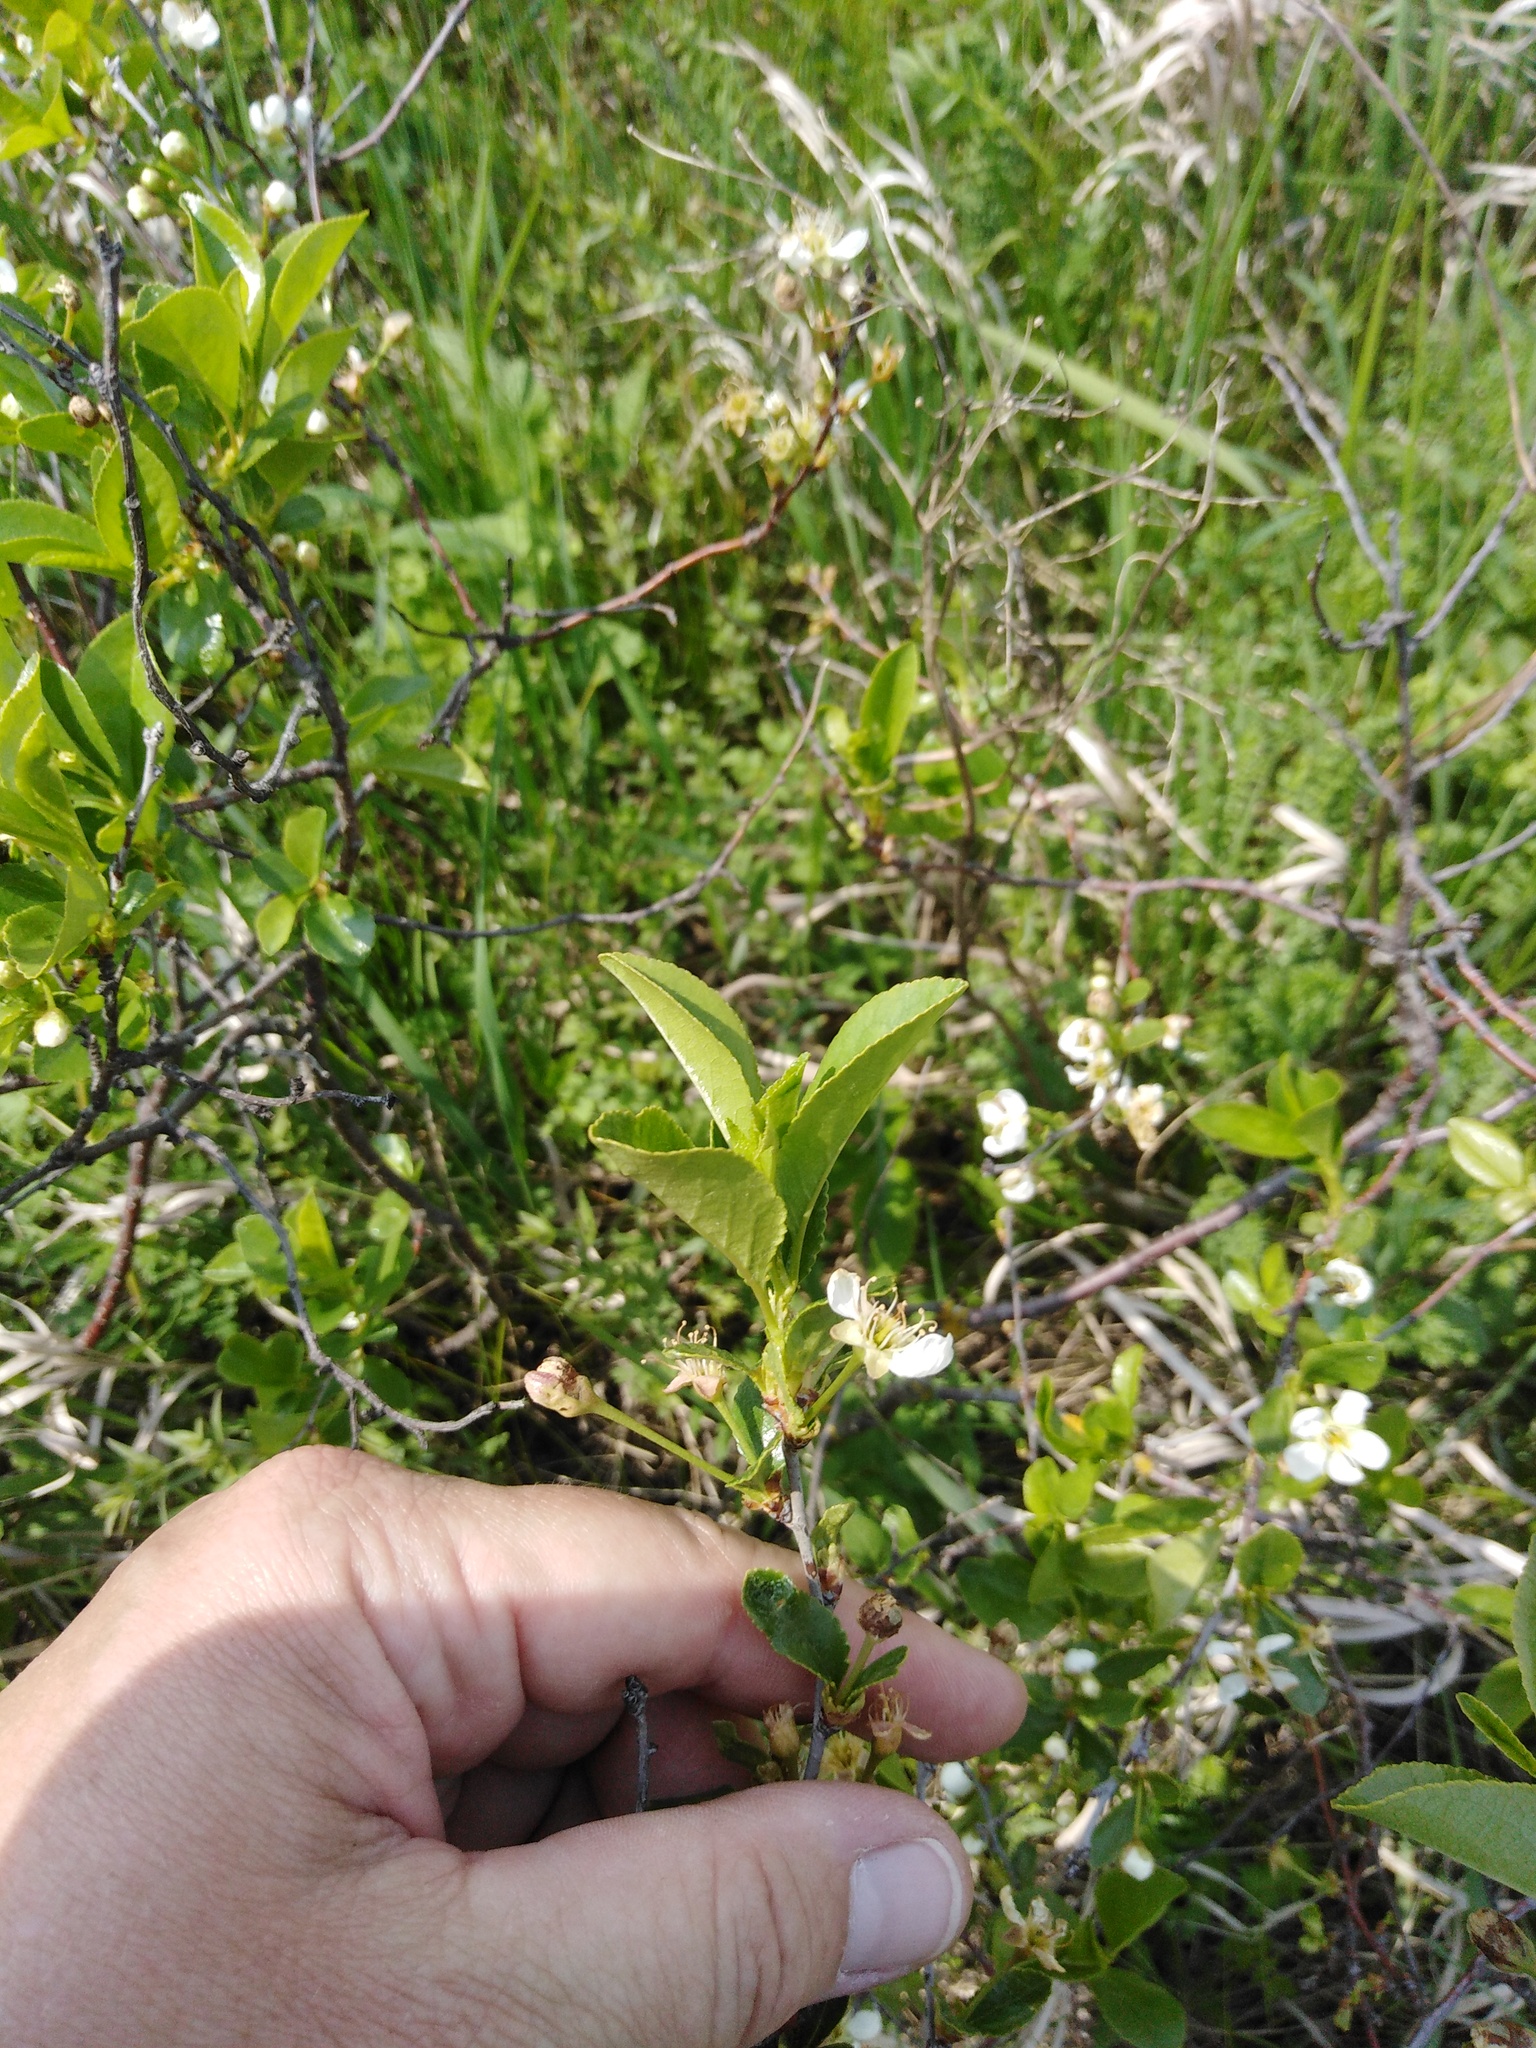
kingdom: Plantae
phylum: Tracheophyta
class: Magnoliopsida
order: Rosales
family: Rosaceae
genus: Prunus
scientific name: Prunus fruticosa
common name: European dwarf cherry
